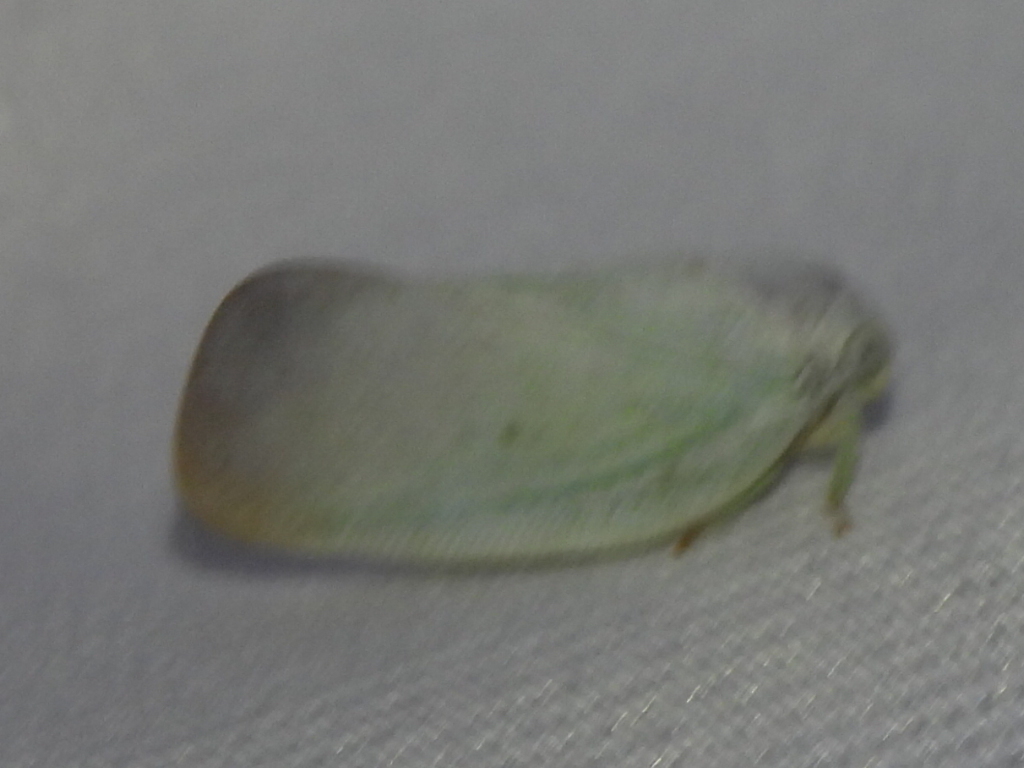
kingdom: Animalia
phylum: Arthropoda
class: Insecta
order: Hemiptera
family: Flatidae
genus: Flatormenis
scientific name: Flatormenis saucia
